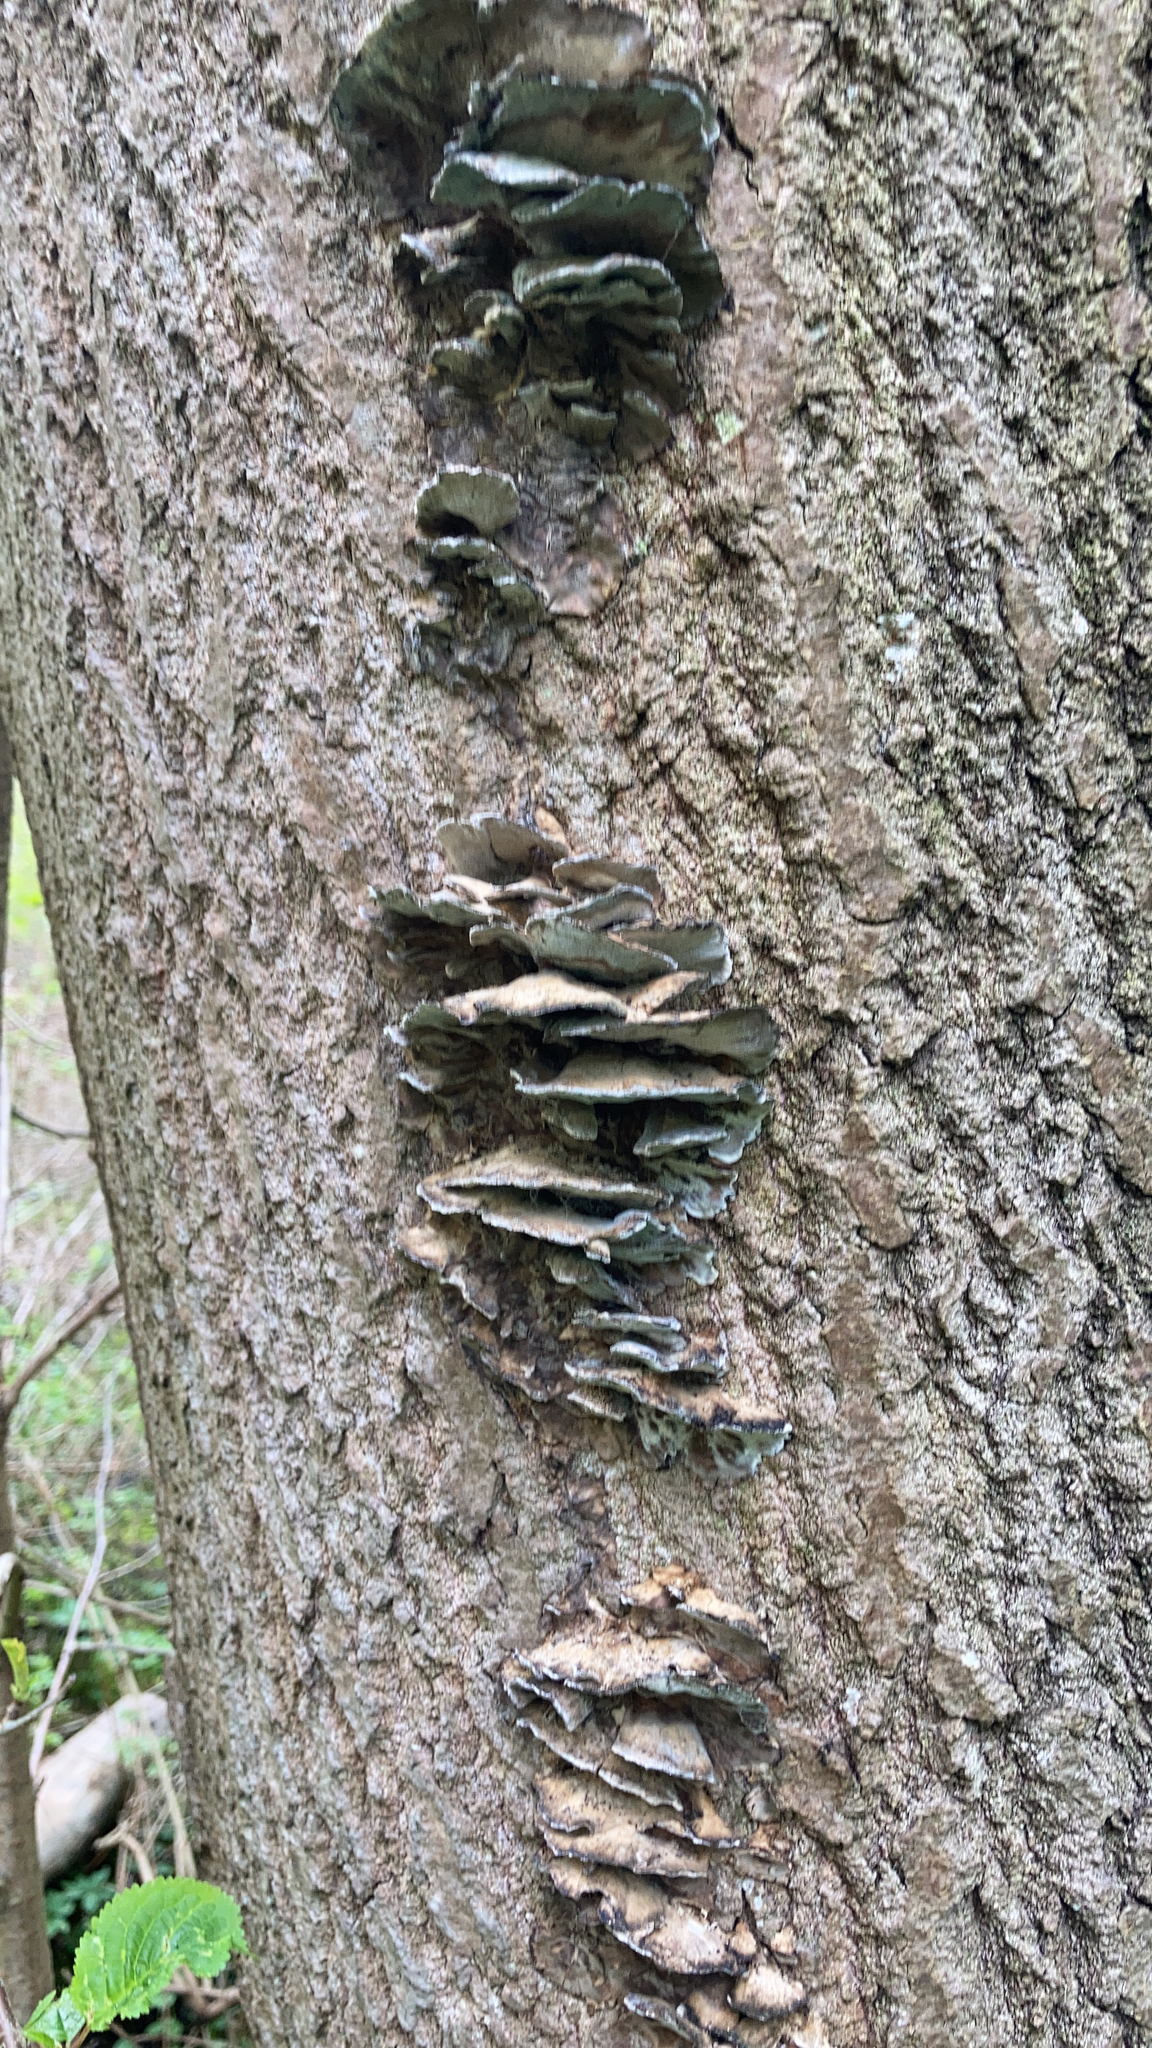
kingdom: Fungi
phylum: Basidiomycota
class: Agaricomycetes
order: Polyporales
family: Phanerochaetaceae
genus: Bjerkandera
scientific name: Bjerkandera adusta
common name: Smoky bracket
